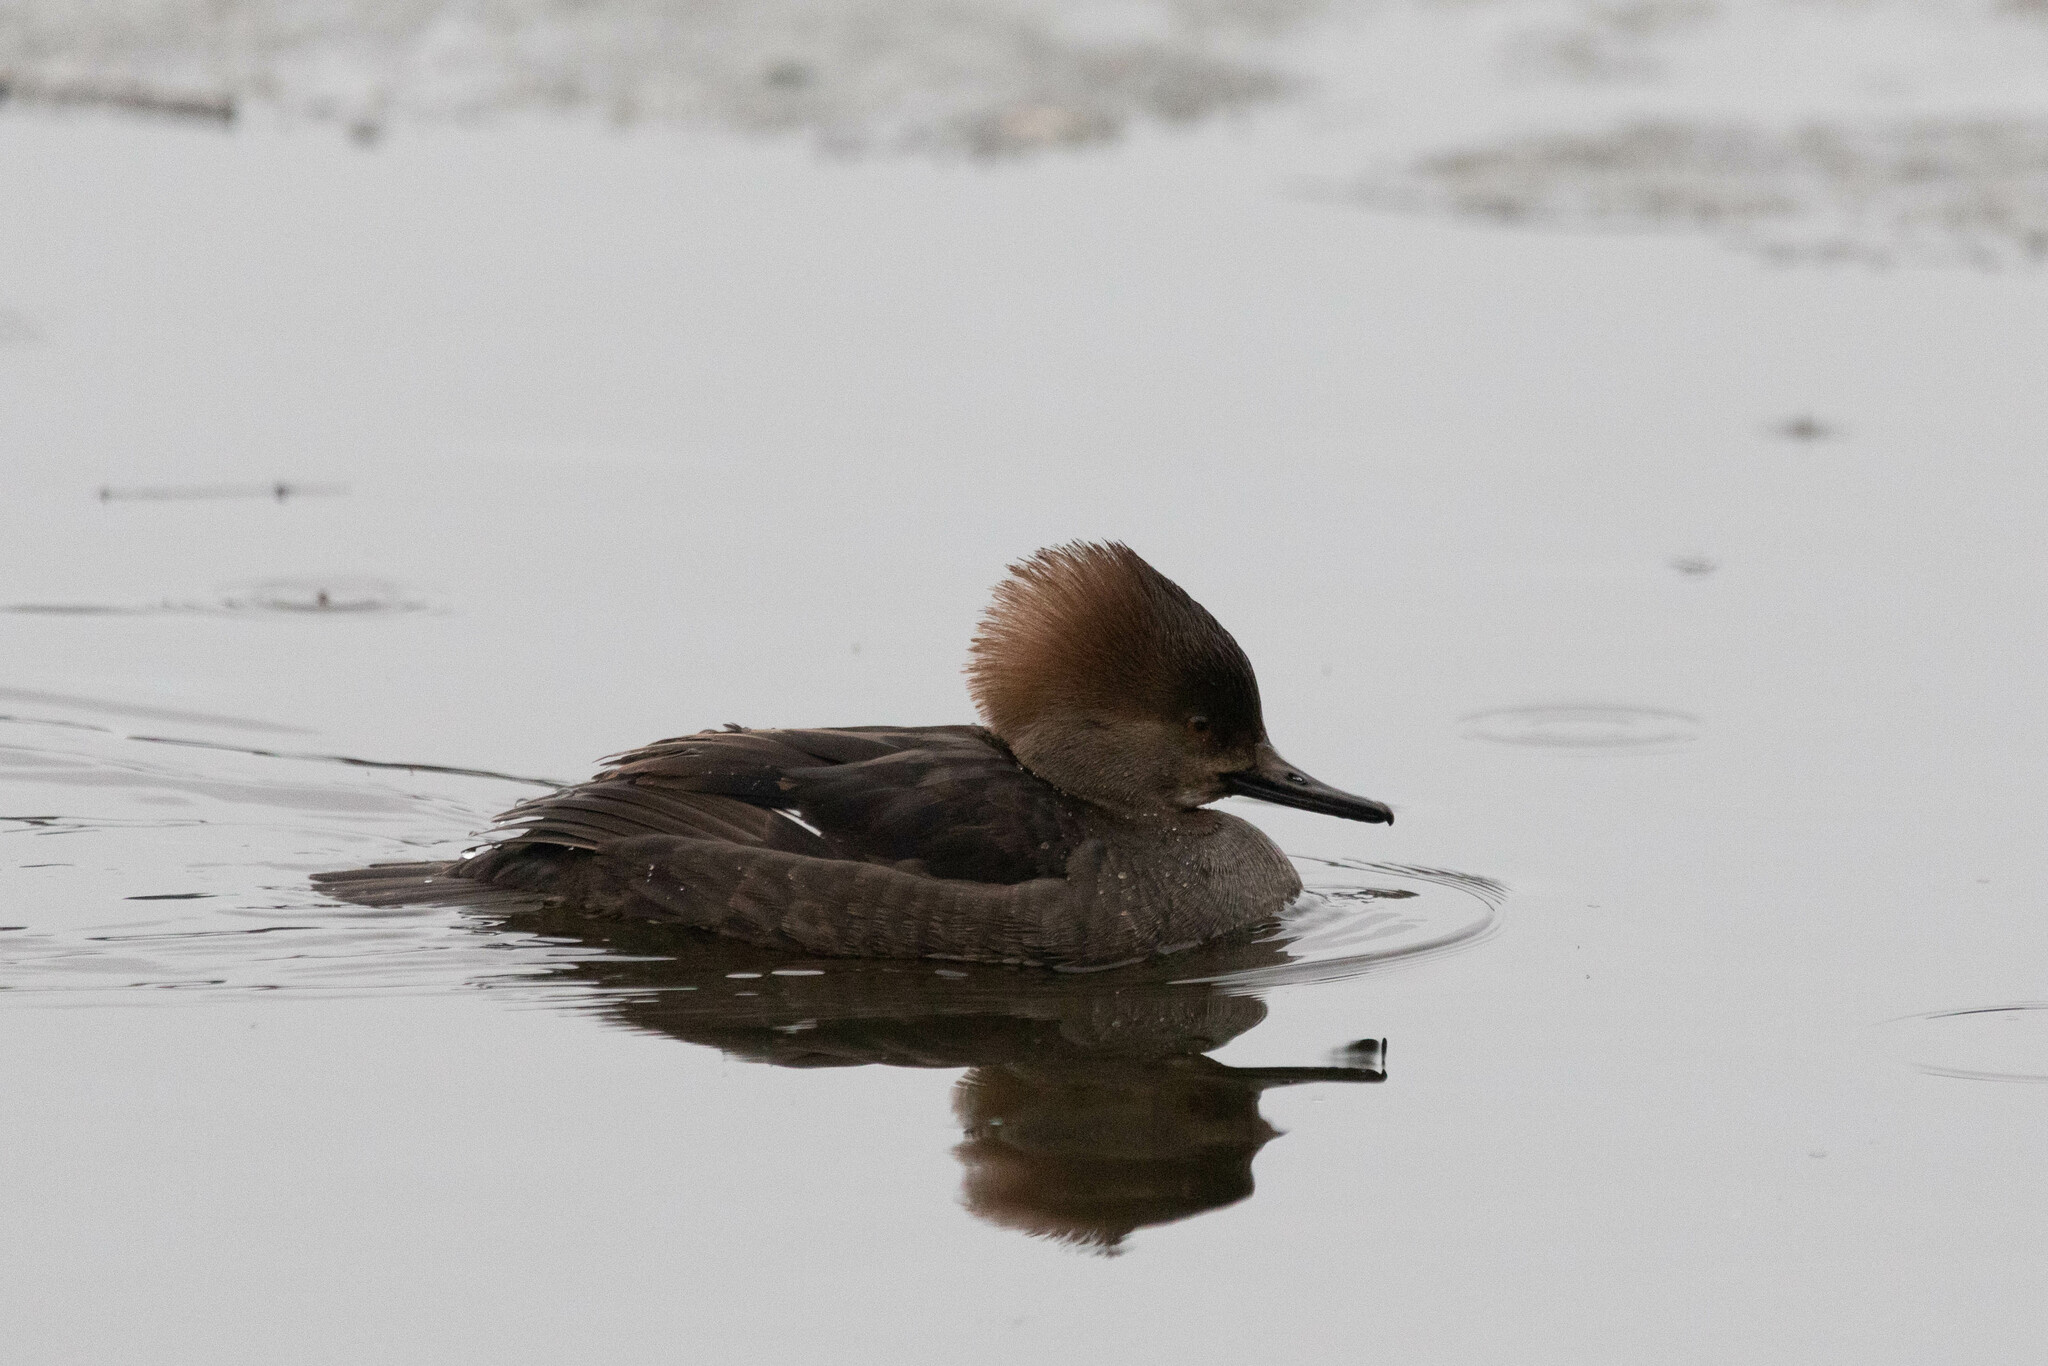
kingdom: Animalia
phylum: Chordata
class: Aves
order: Anseriformes
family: Anatidae
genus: Lophodytes
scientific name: Lophodytes cucullatus
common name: Hooded merganser
